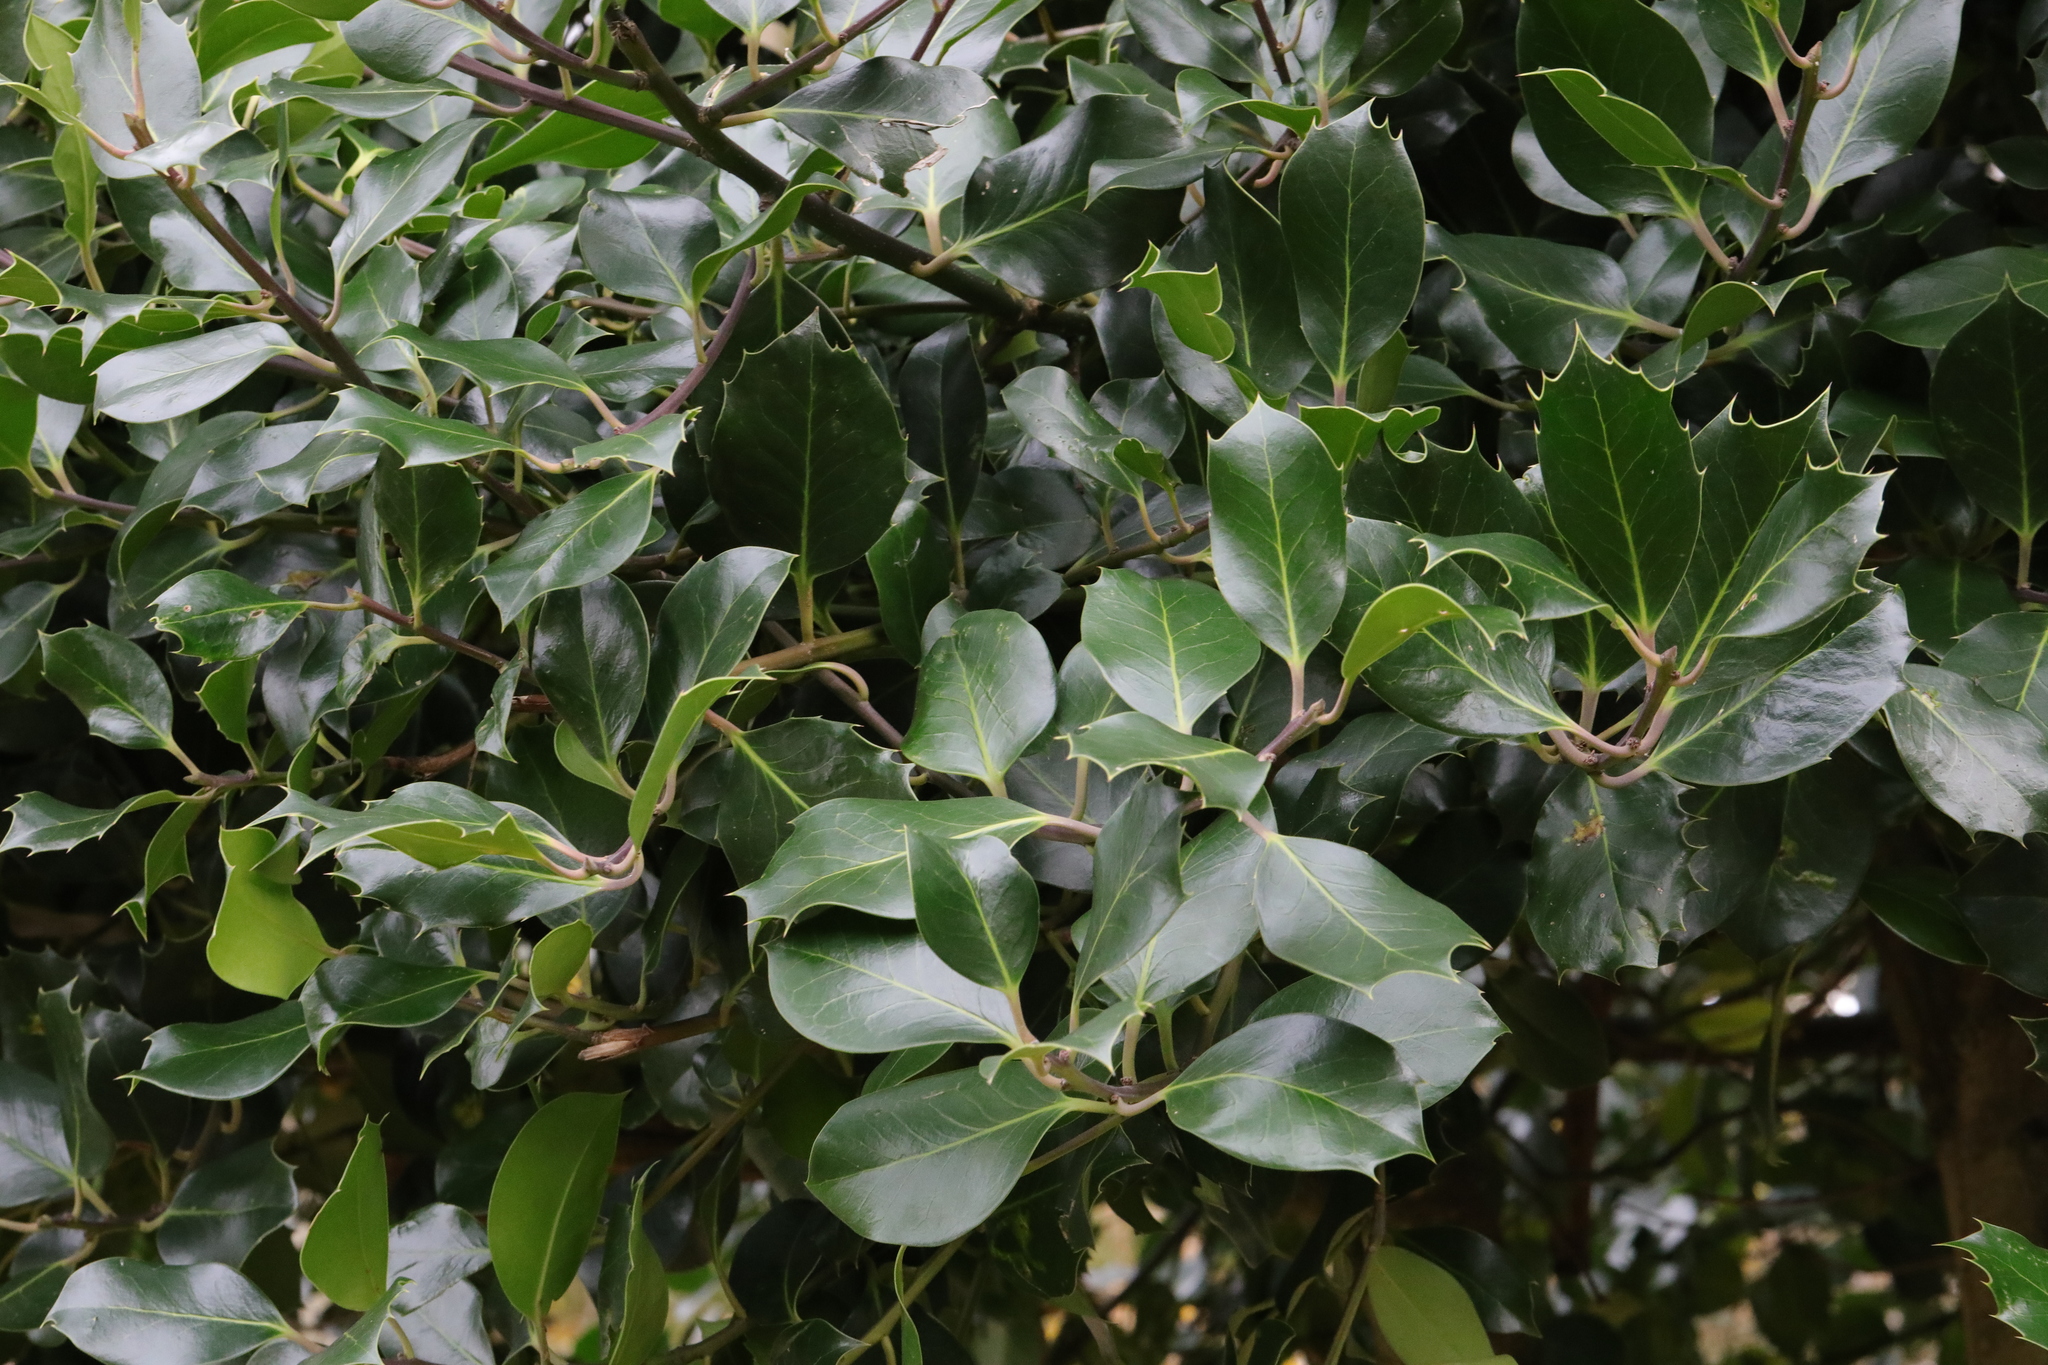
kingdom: Plantae
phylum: Tracheophyta
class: Magnoliopsida
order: Aquifoliales
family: Aquifoliaceae
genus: Ilex
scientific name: Ilex aquifolium
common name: English holly
